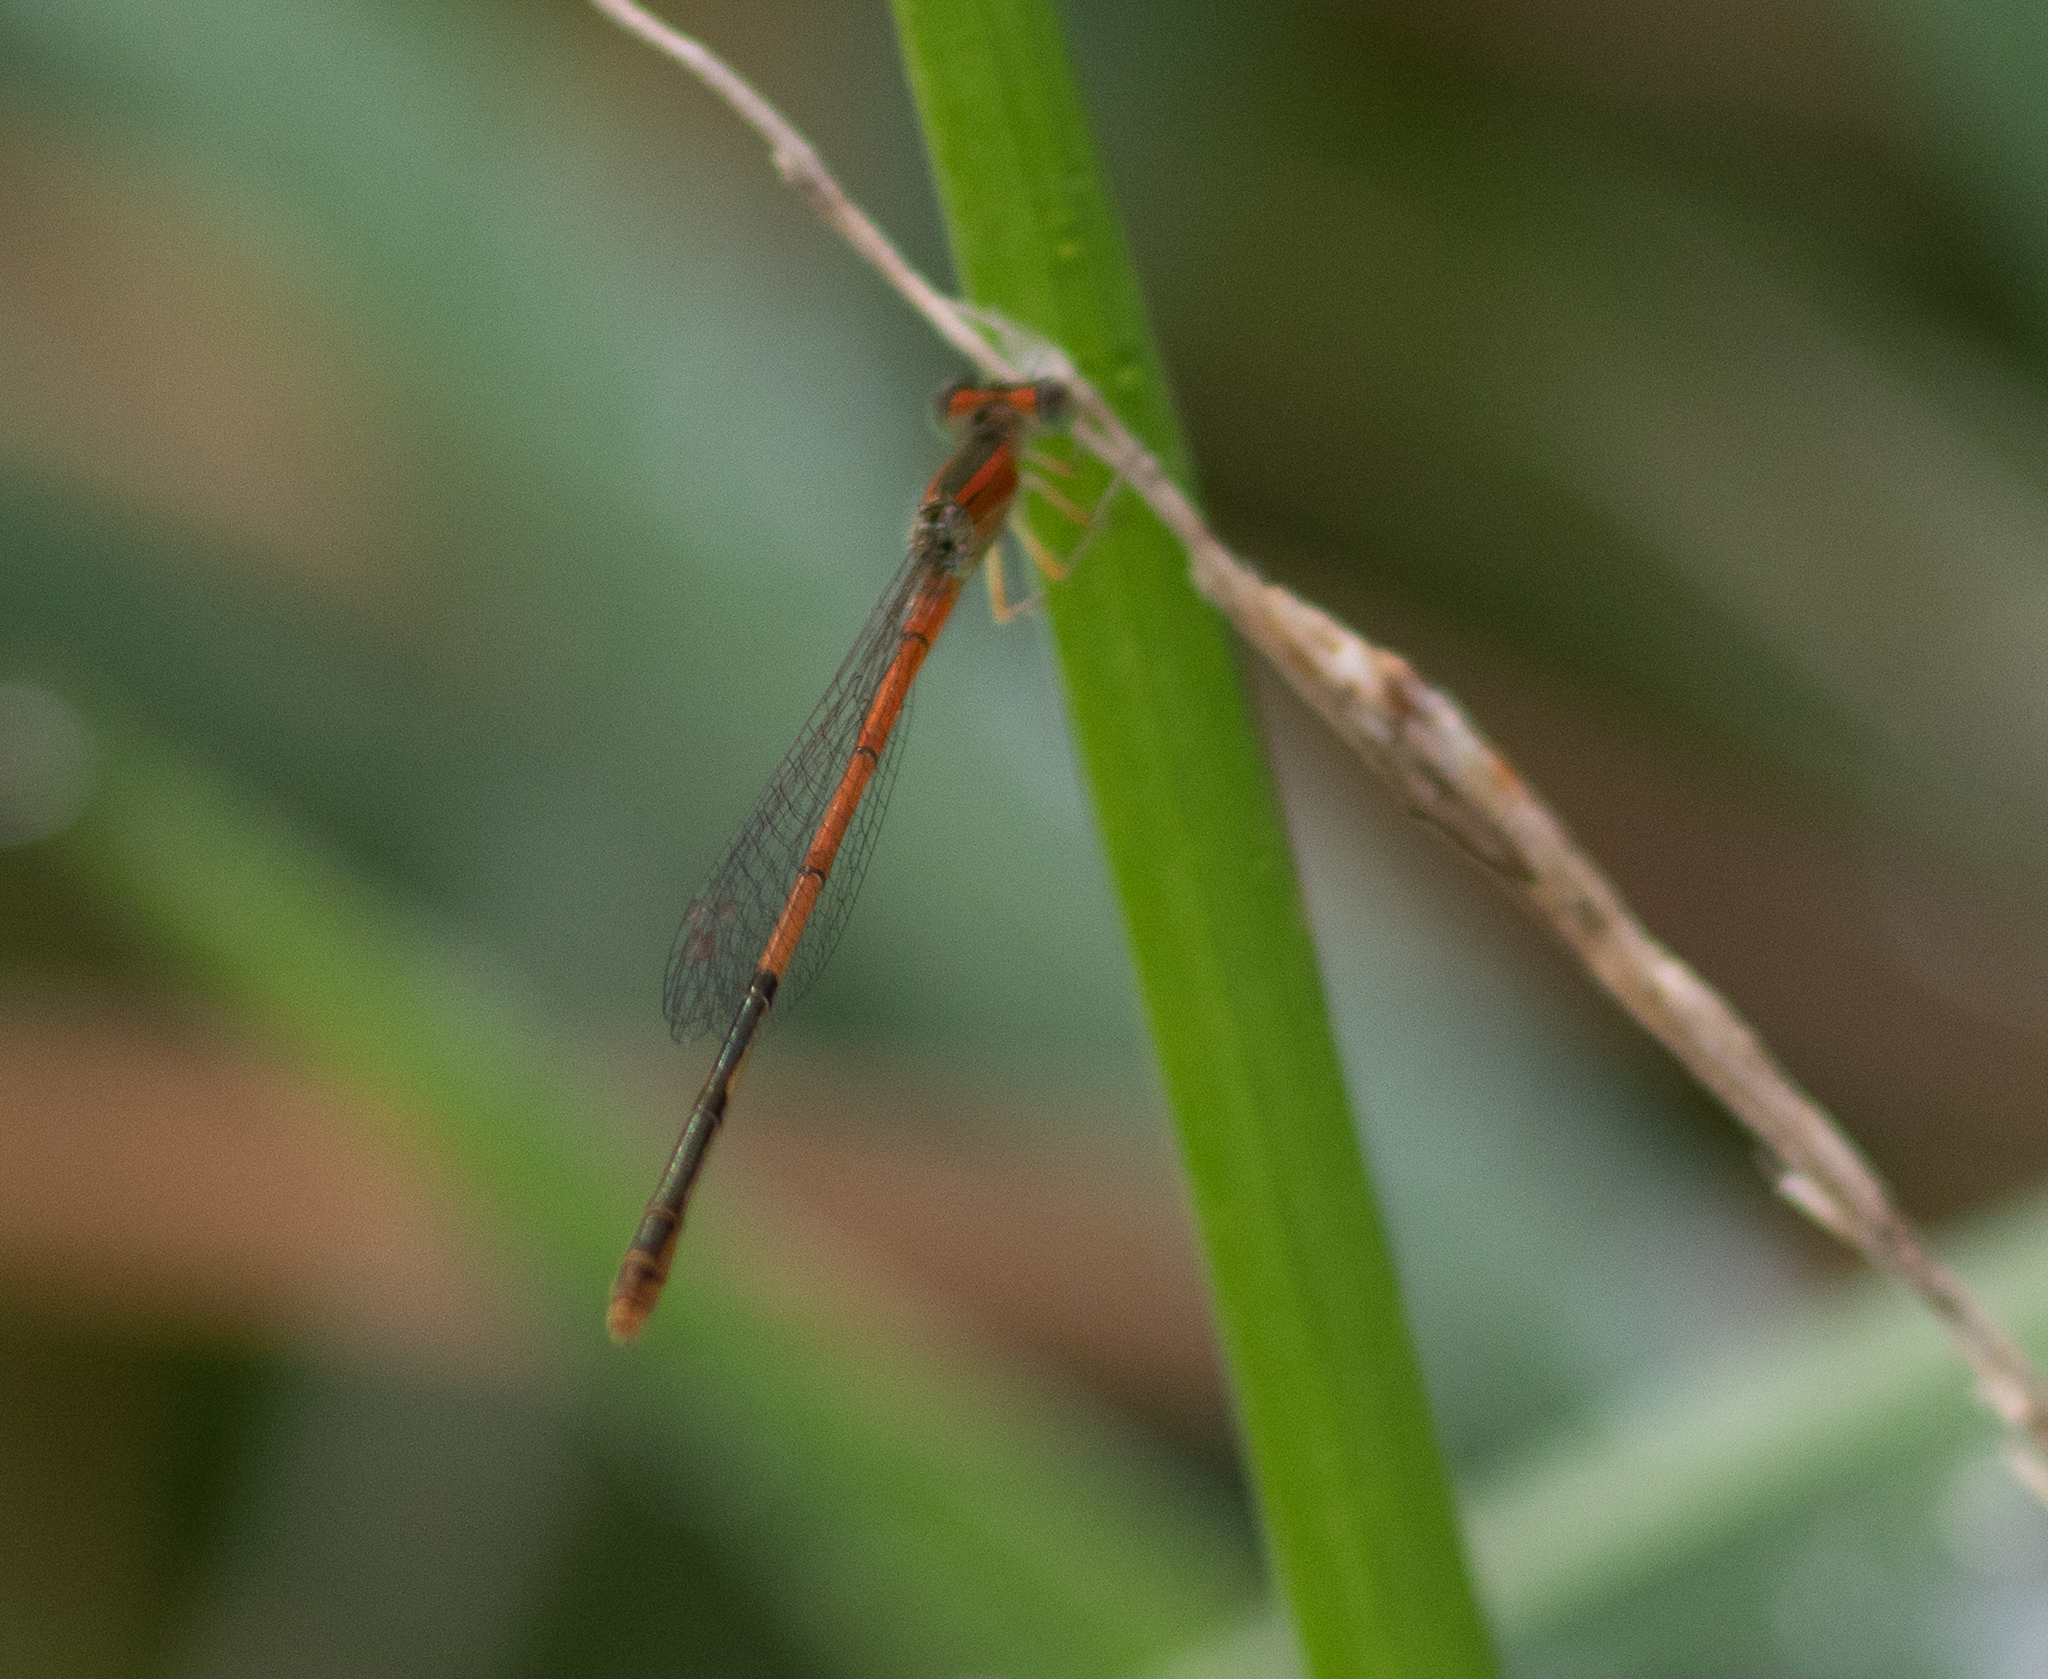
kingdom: Animalia
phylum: Arthropoda
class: Insecta
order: Odonata
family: Coenagrionidae
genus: Ischnura
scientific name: Ischnura hastata
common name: Citrine forktail
